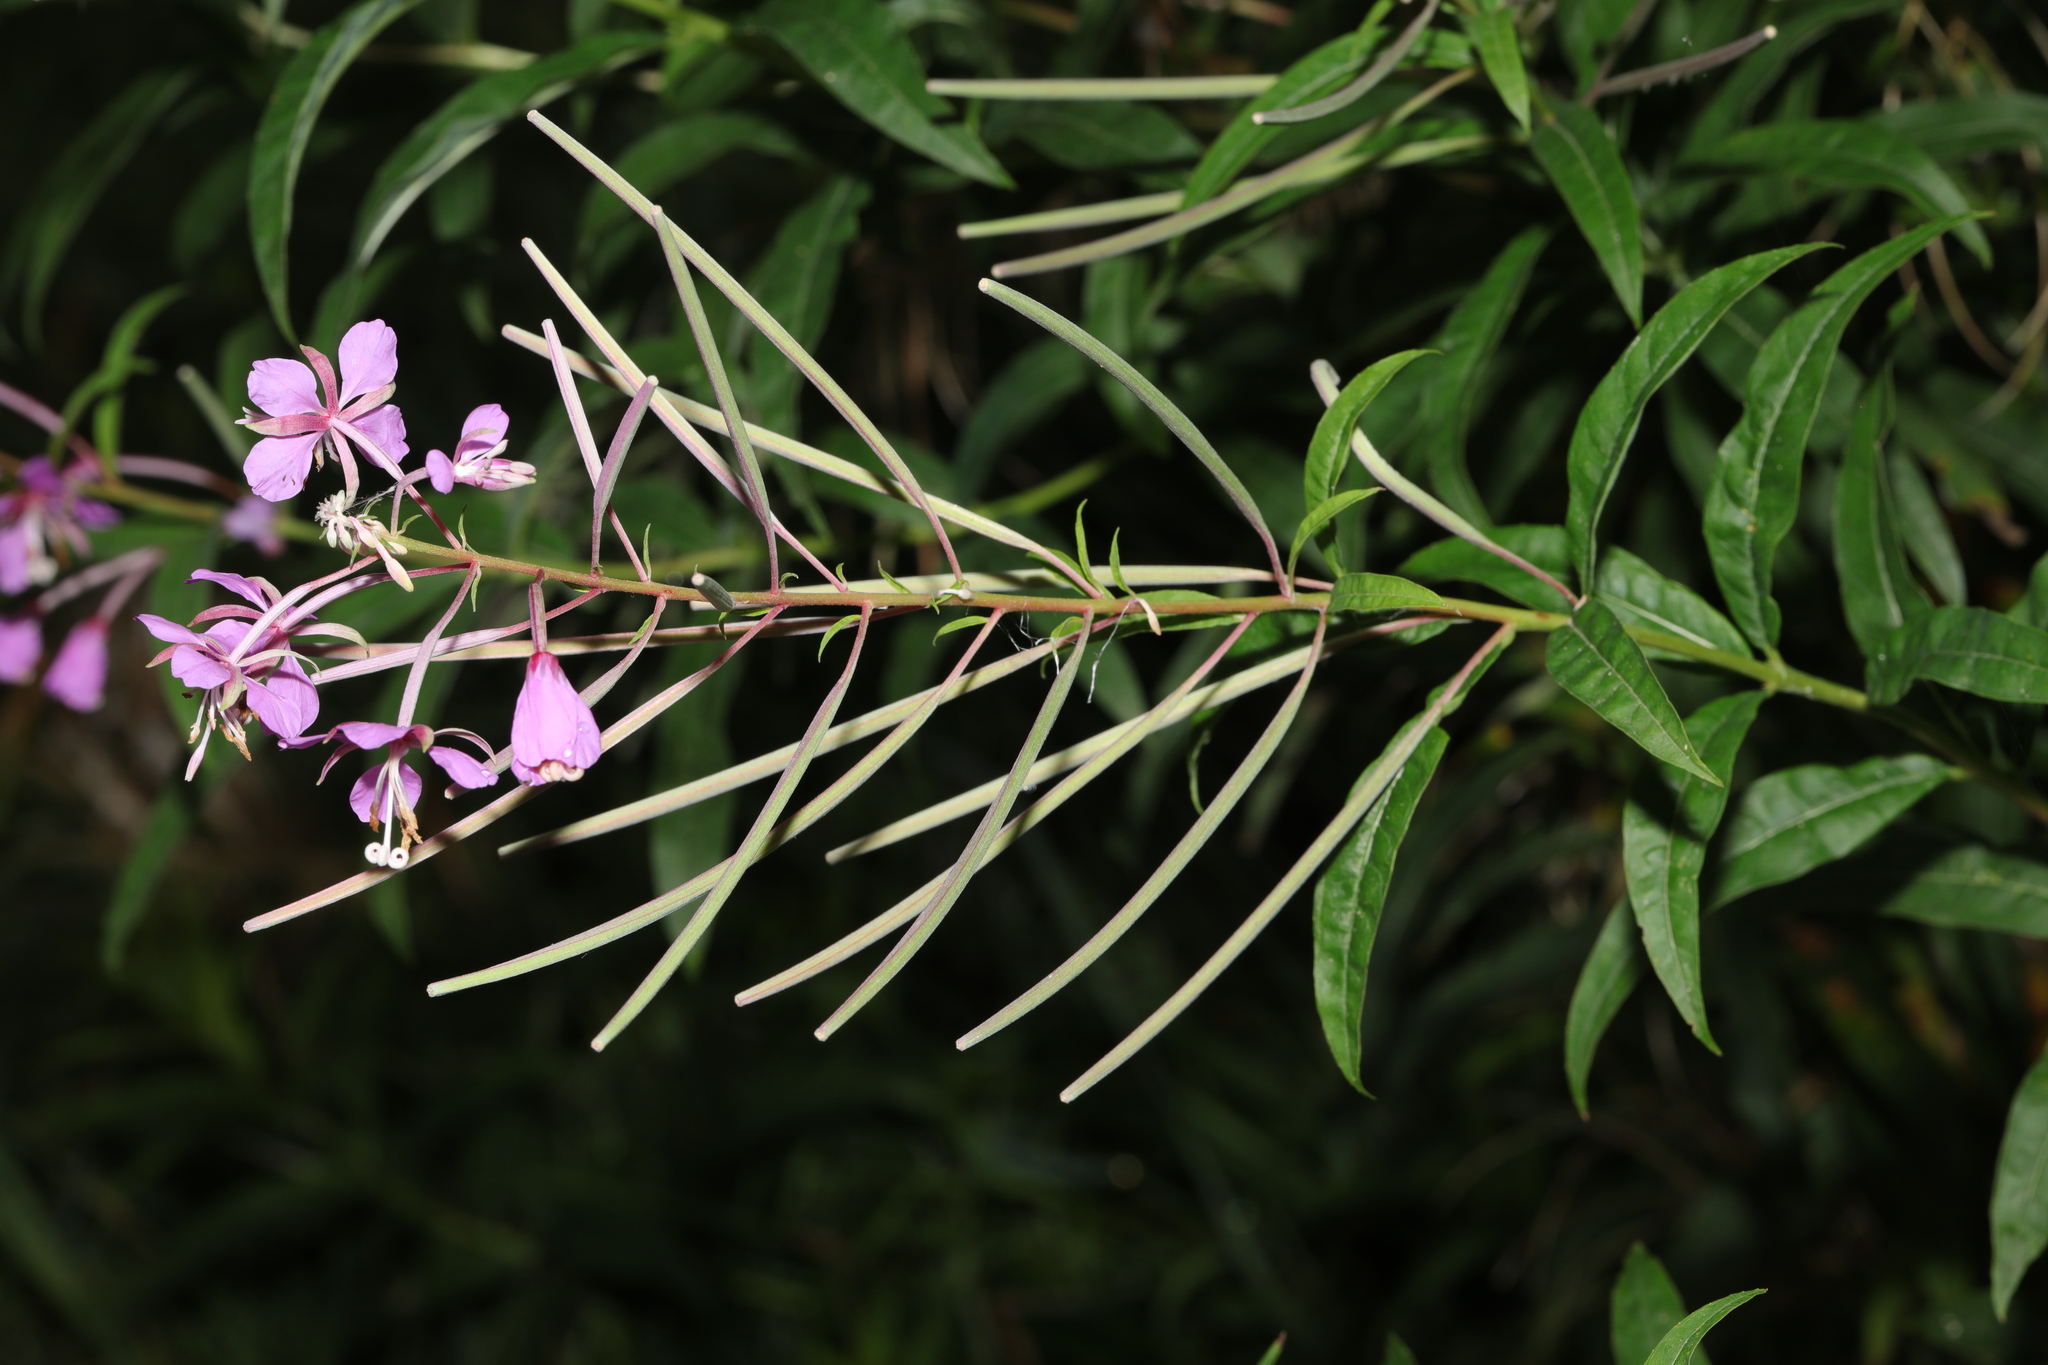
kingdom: Plantae
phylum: Tracheophyta
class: Magnoliopsida
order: Myrtales
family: Onagraceae
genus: Chamaenerion
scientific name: Chamaenerion angustifolium
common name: Fireweed
